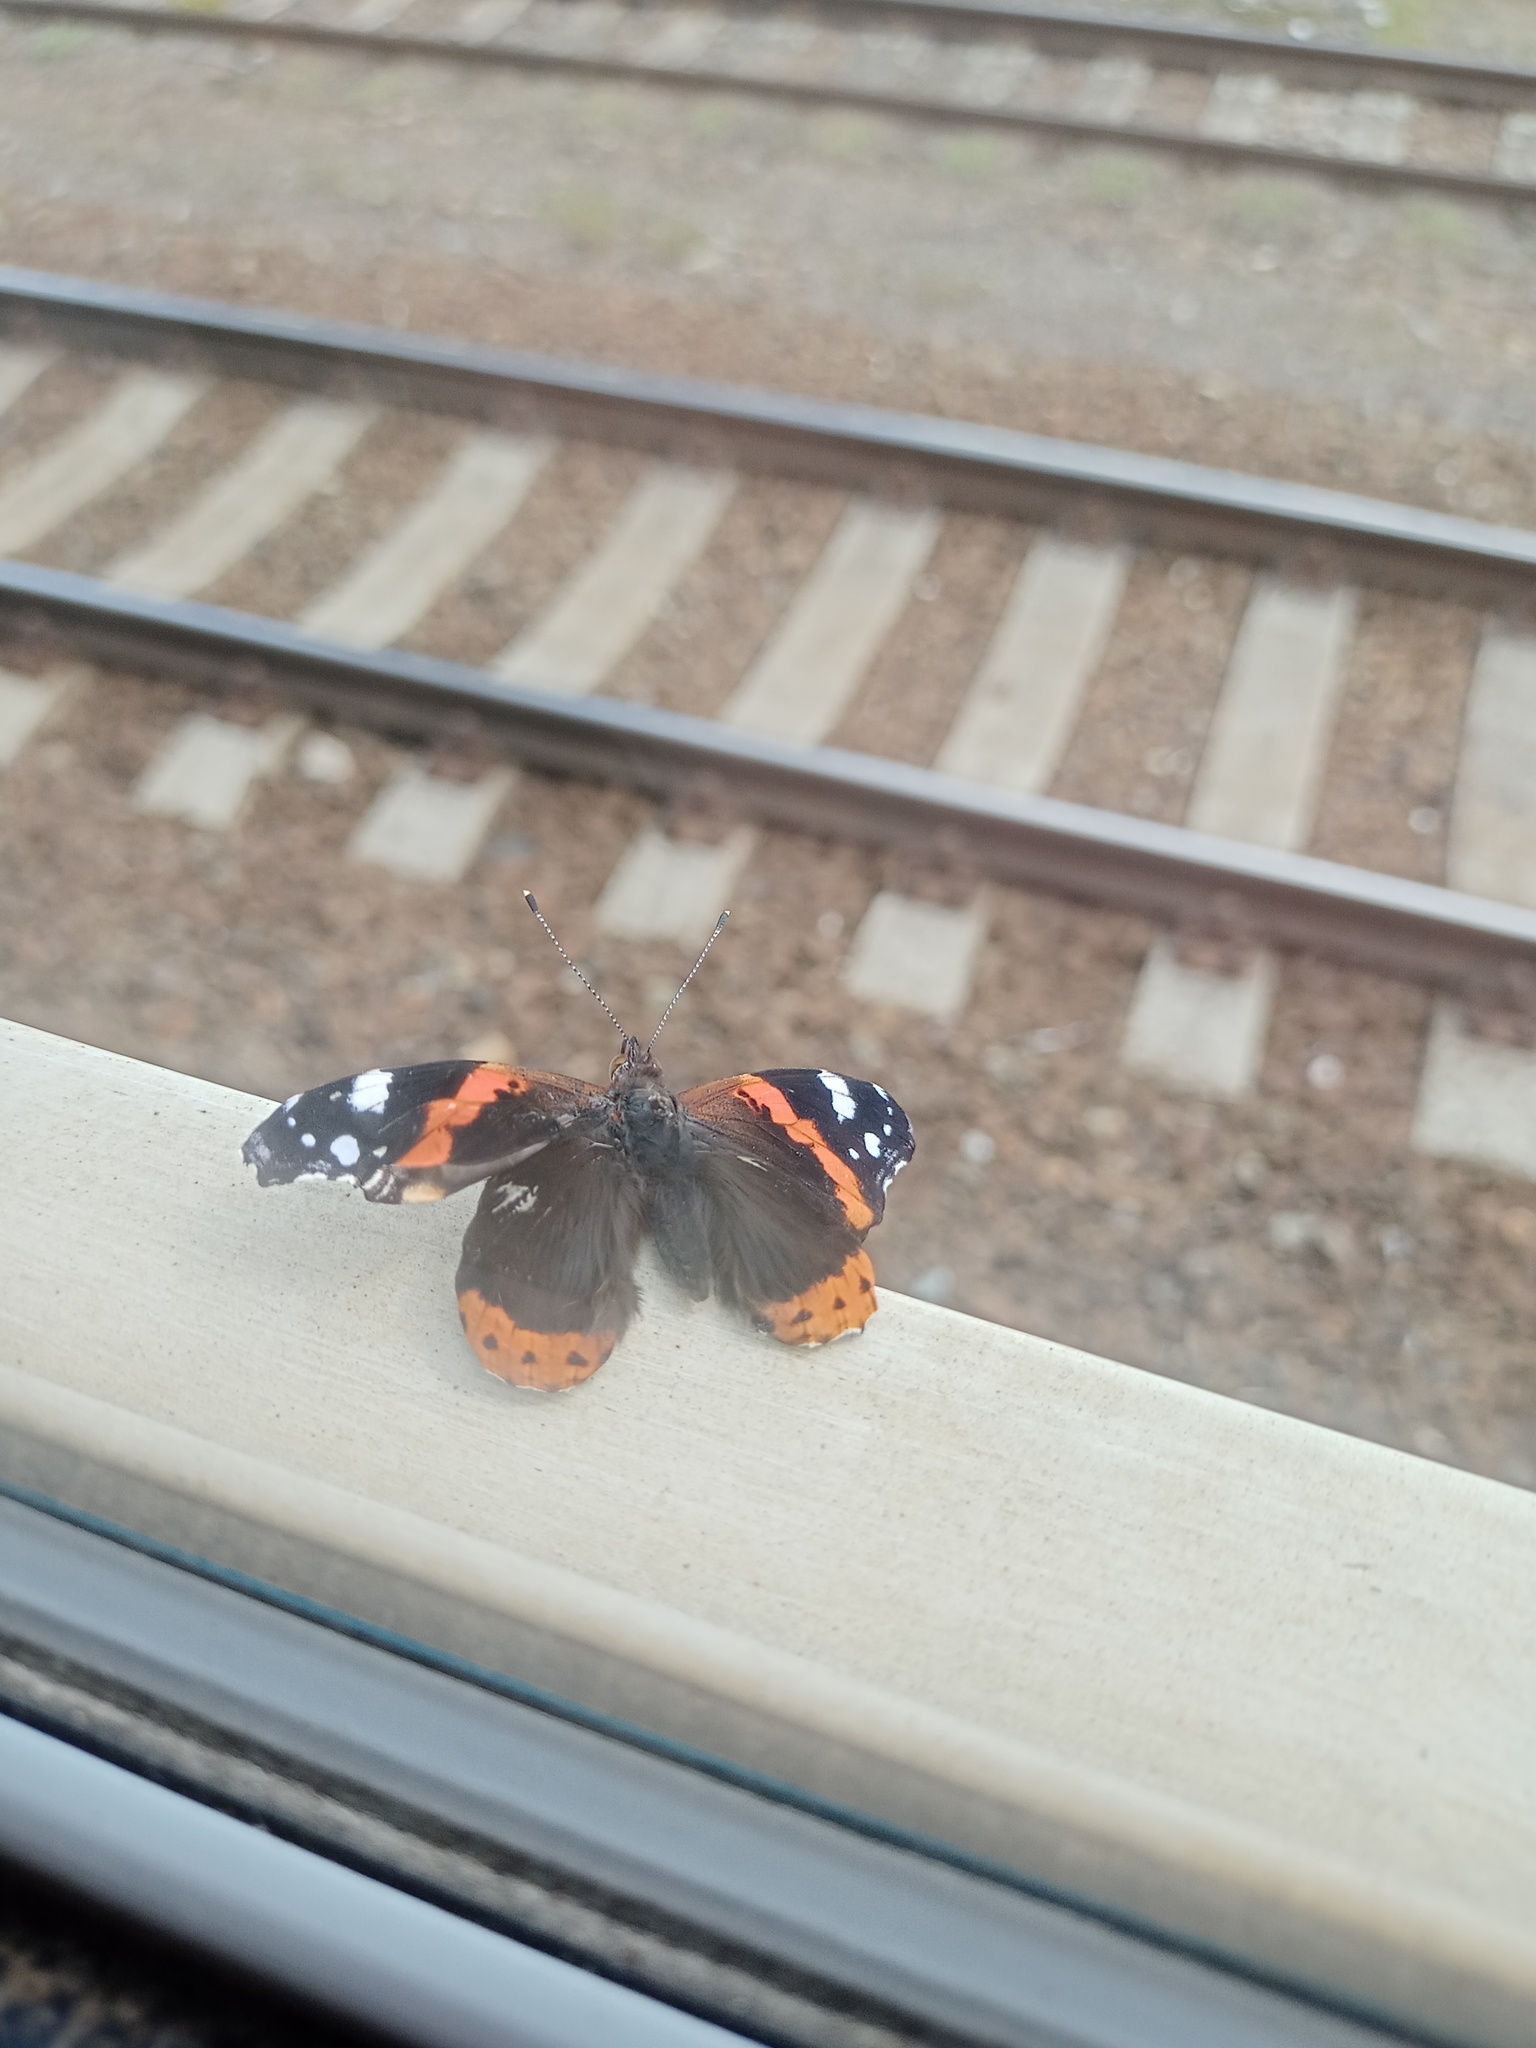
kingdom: Animalia
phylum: Arthropoda
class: Insecta
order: Lepidoptera
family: Nymphalidae
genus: Vanessa
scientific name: Vanessa atalanta
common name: Red admiral
